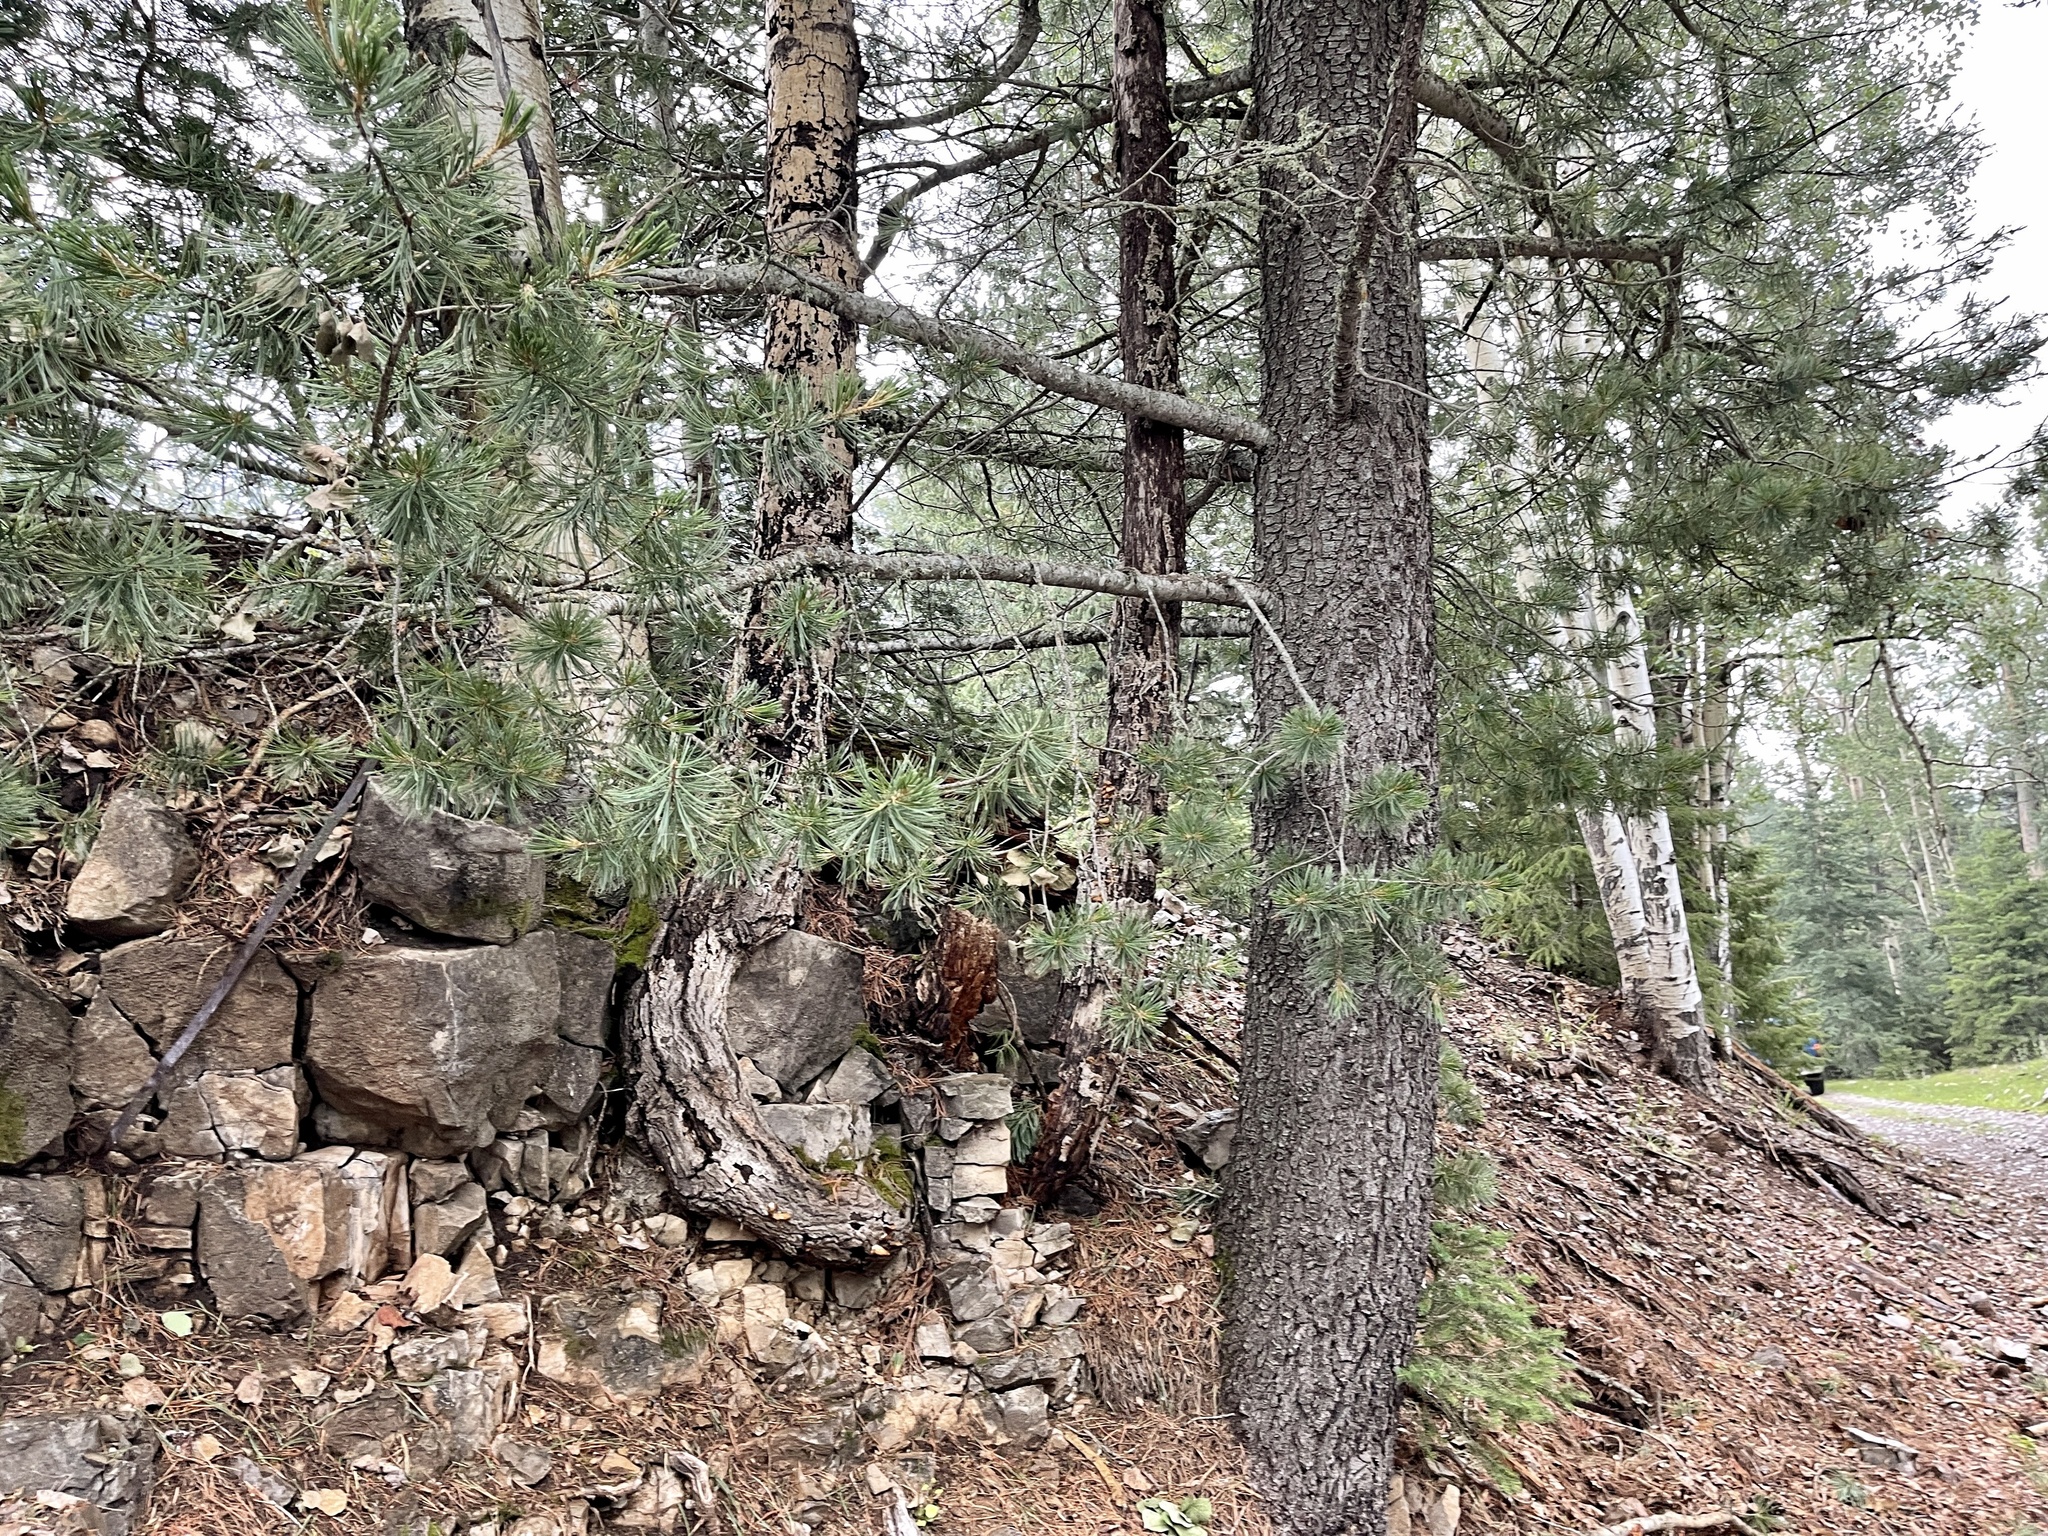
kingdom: Plantae
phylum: Tracheophyta
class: Pinopsida
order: Pinales
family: Pinaceae
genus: Pinus
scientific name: Pinus strobiformis
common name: Southwestern white pine
